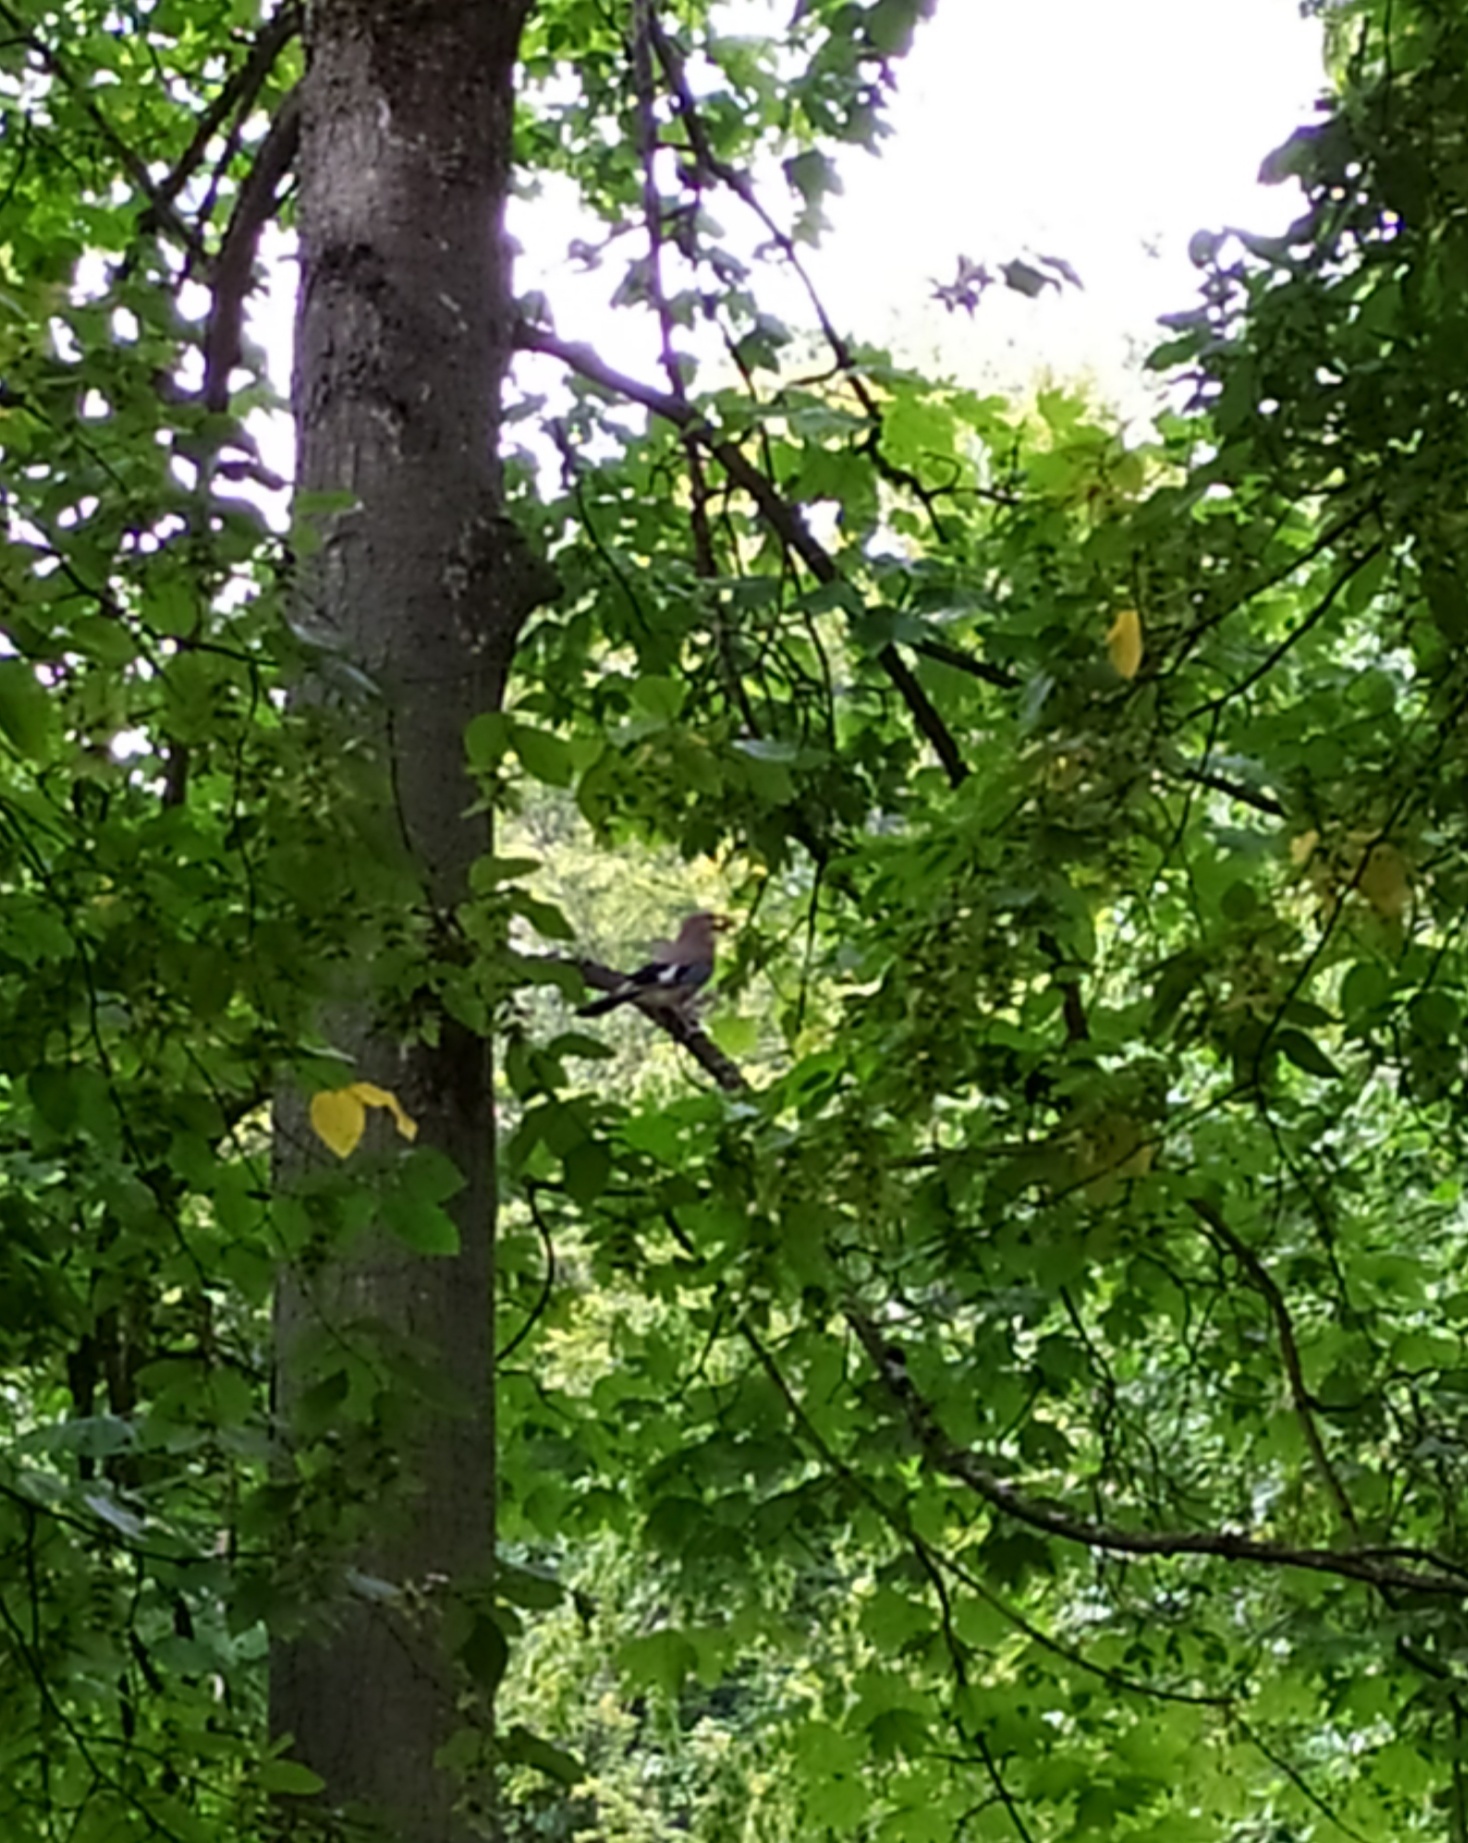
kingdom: Animalia
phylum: Chordata
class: Aves
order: Passeriformes
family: Corvidae
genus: Garrulus
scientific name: Garrulus glandarius
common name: Eurasian jay
